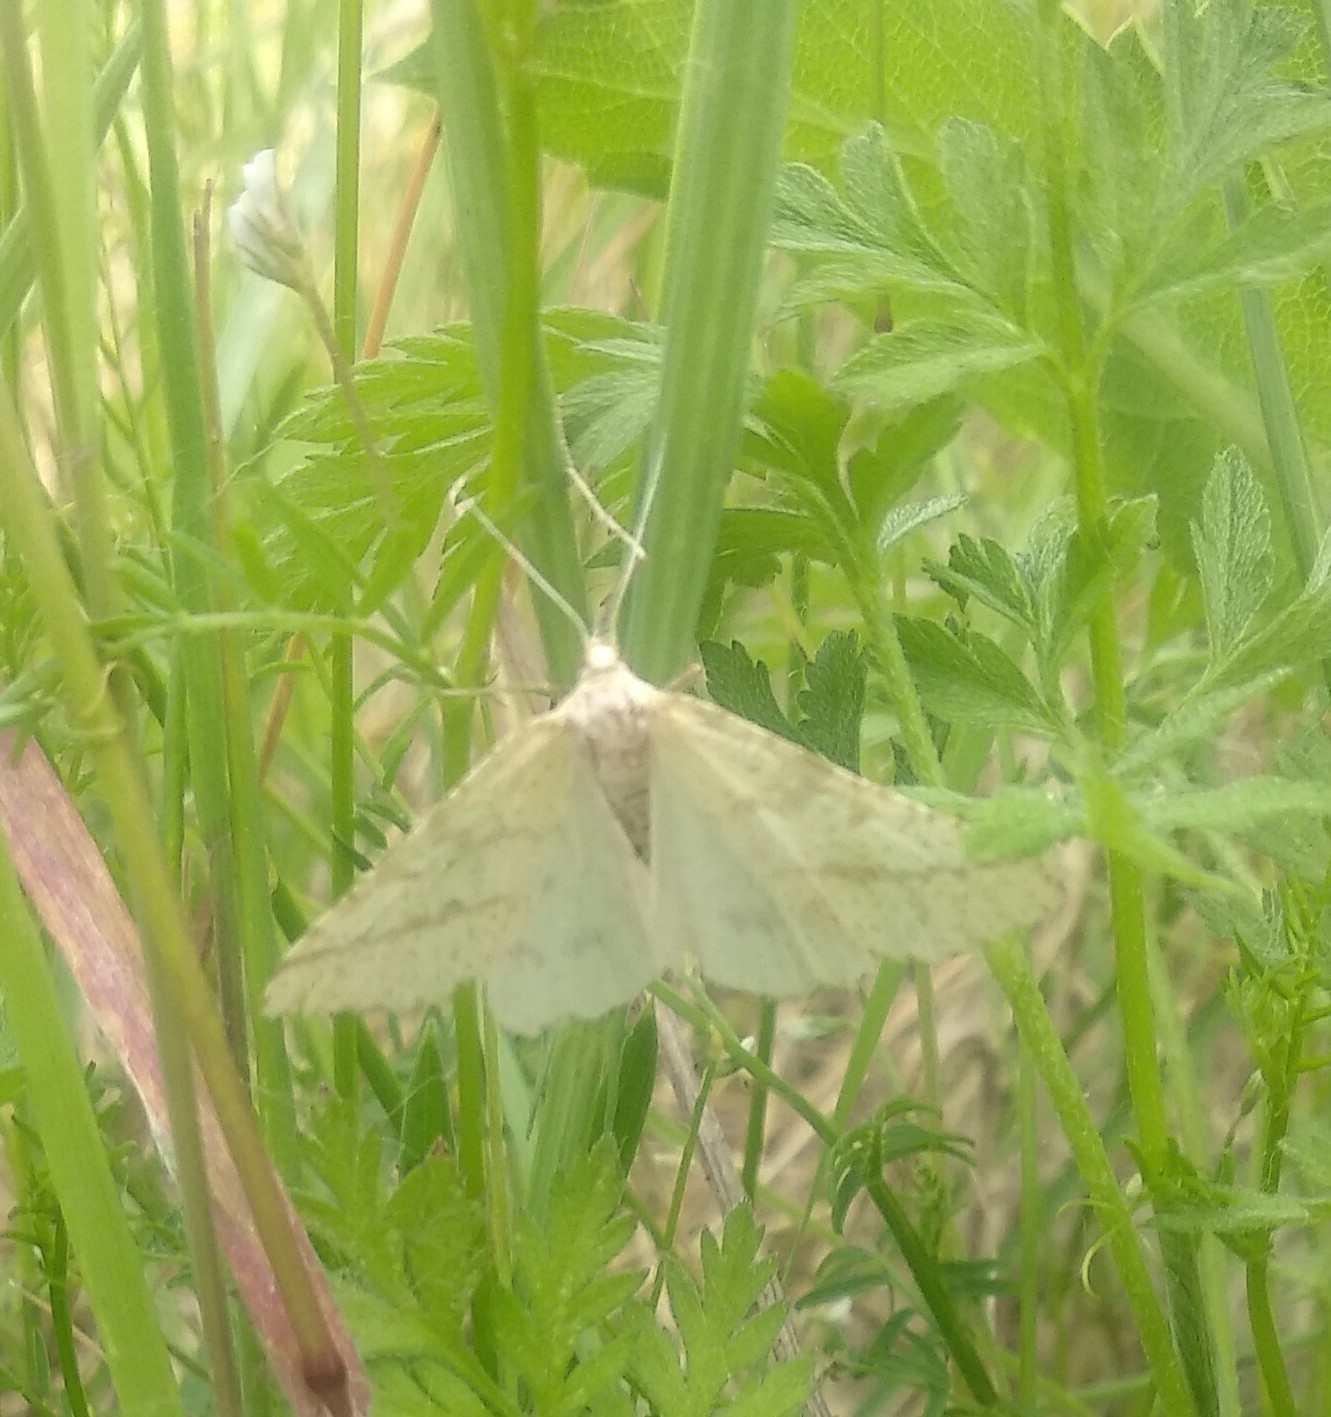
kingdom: Animalia
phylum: Arthropoda
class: Insecta
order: Lepidoptera
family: Geometridae
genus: Aspitates
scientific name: Aspitates ochrearia
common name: Yellow belle
